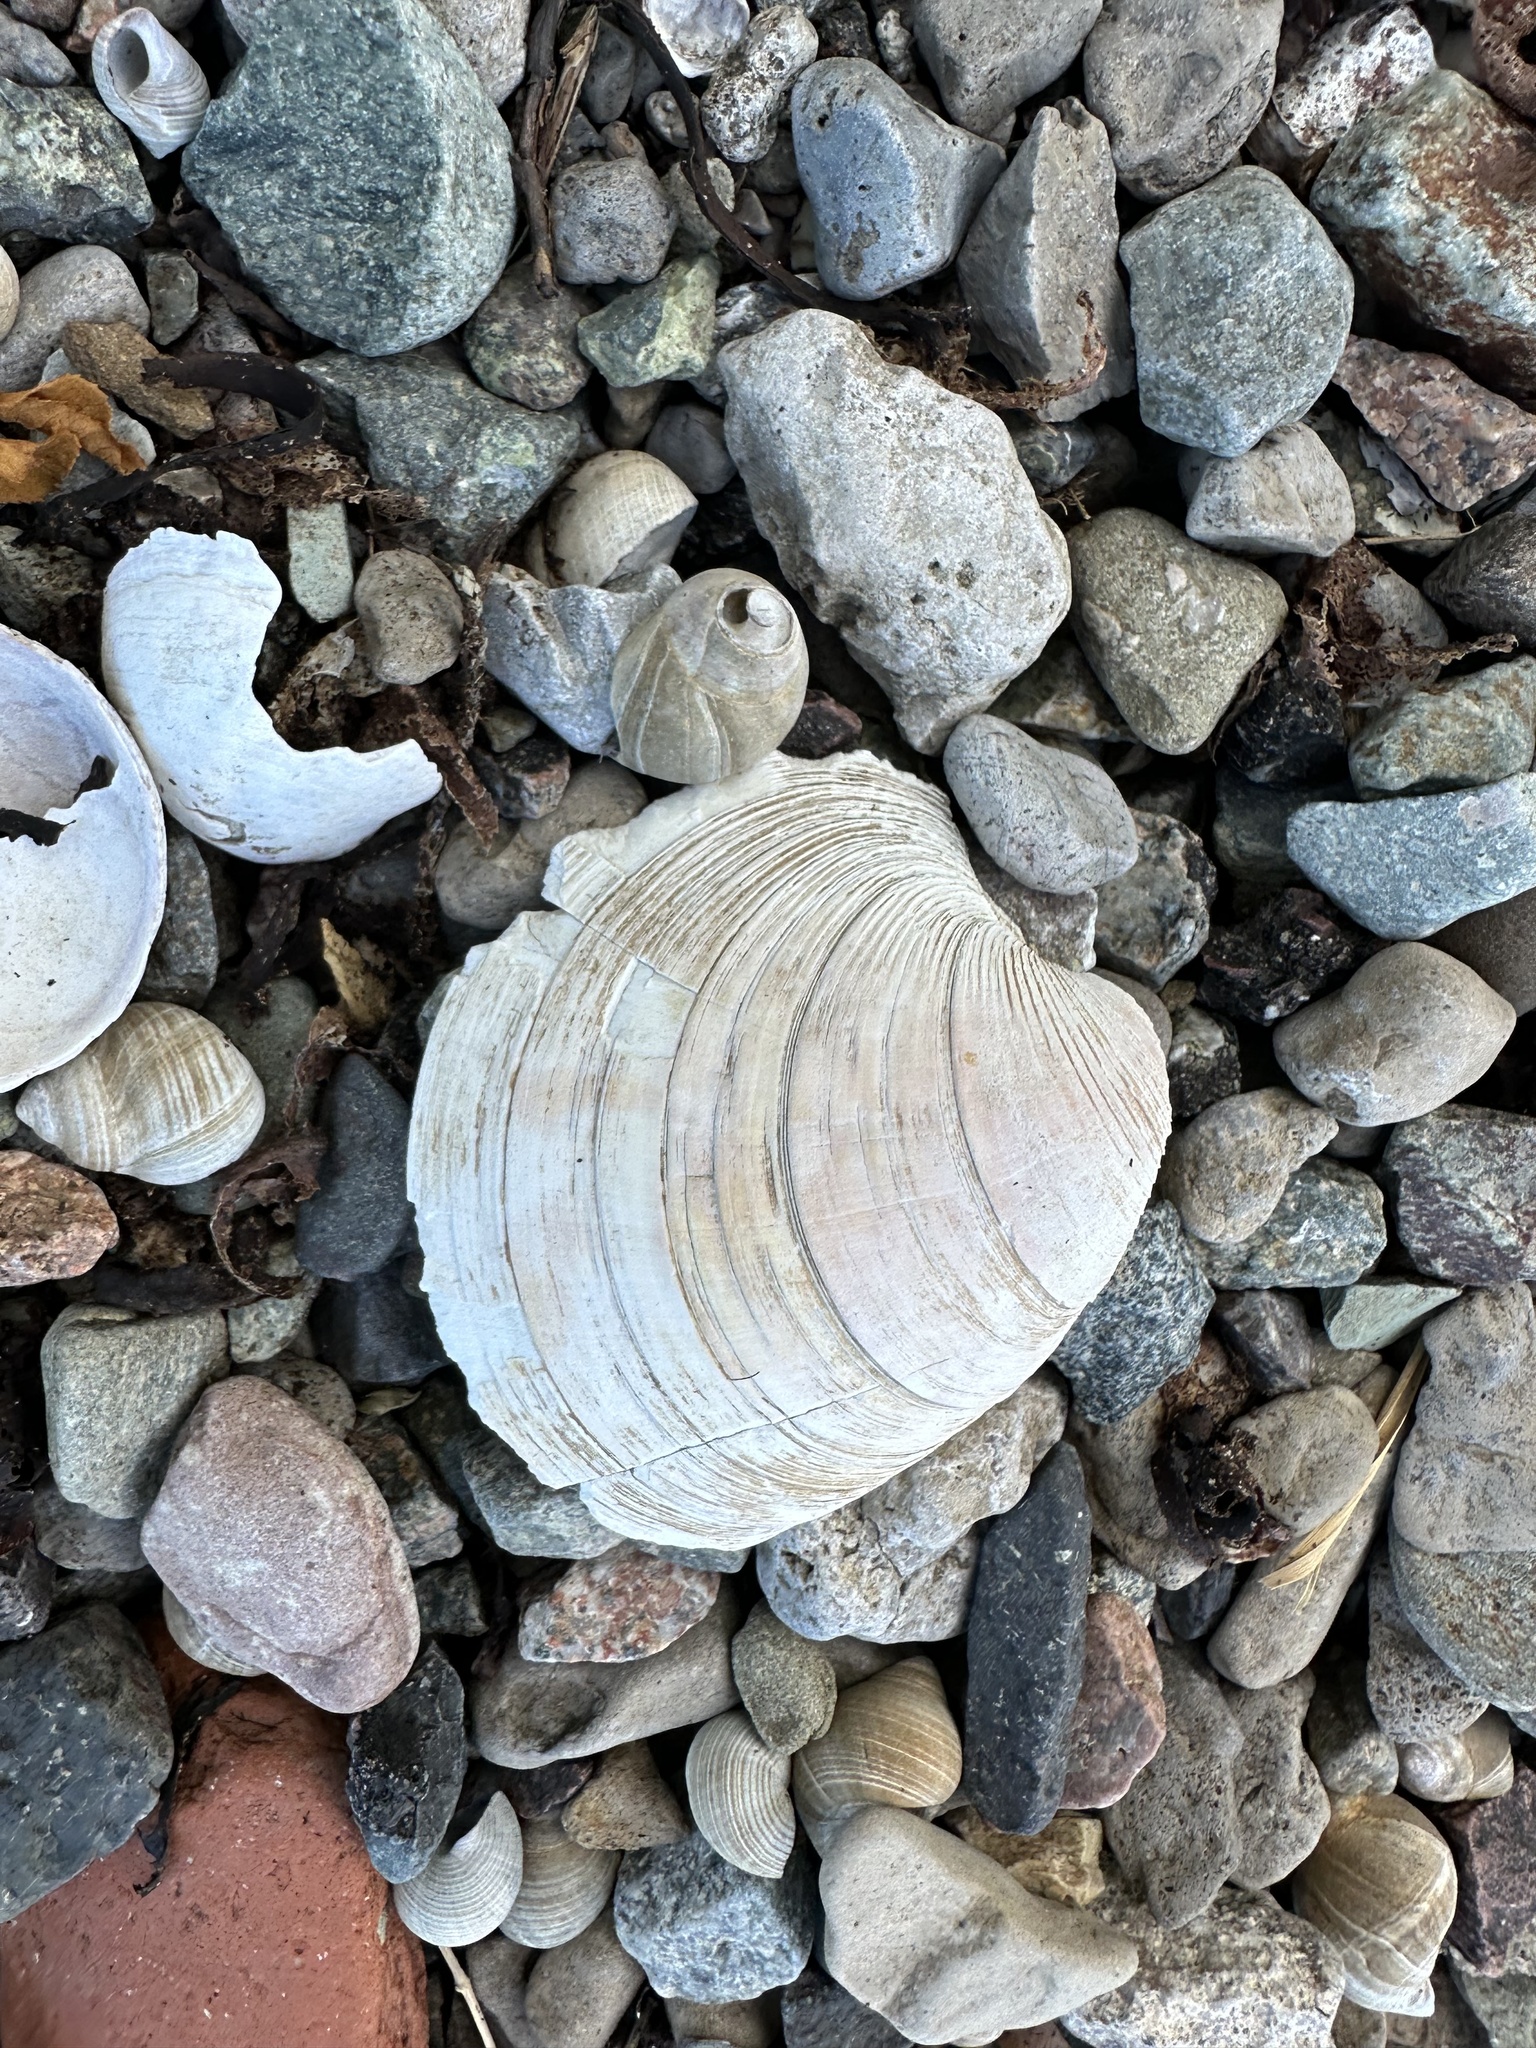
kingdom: Animalia
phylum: Mollusca
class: Bivalvia
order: Venerida
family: Veneridae
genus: Mercenaria
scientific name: Mercenaria mercenaria
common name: American hard-shelled clam
